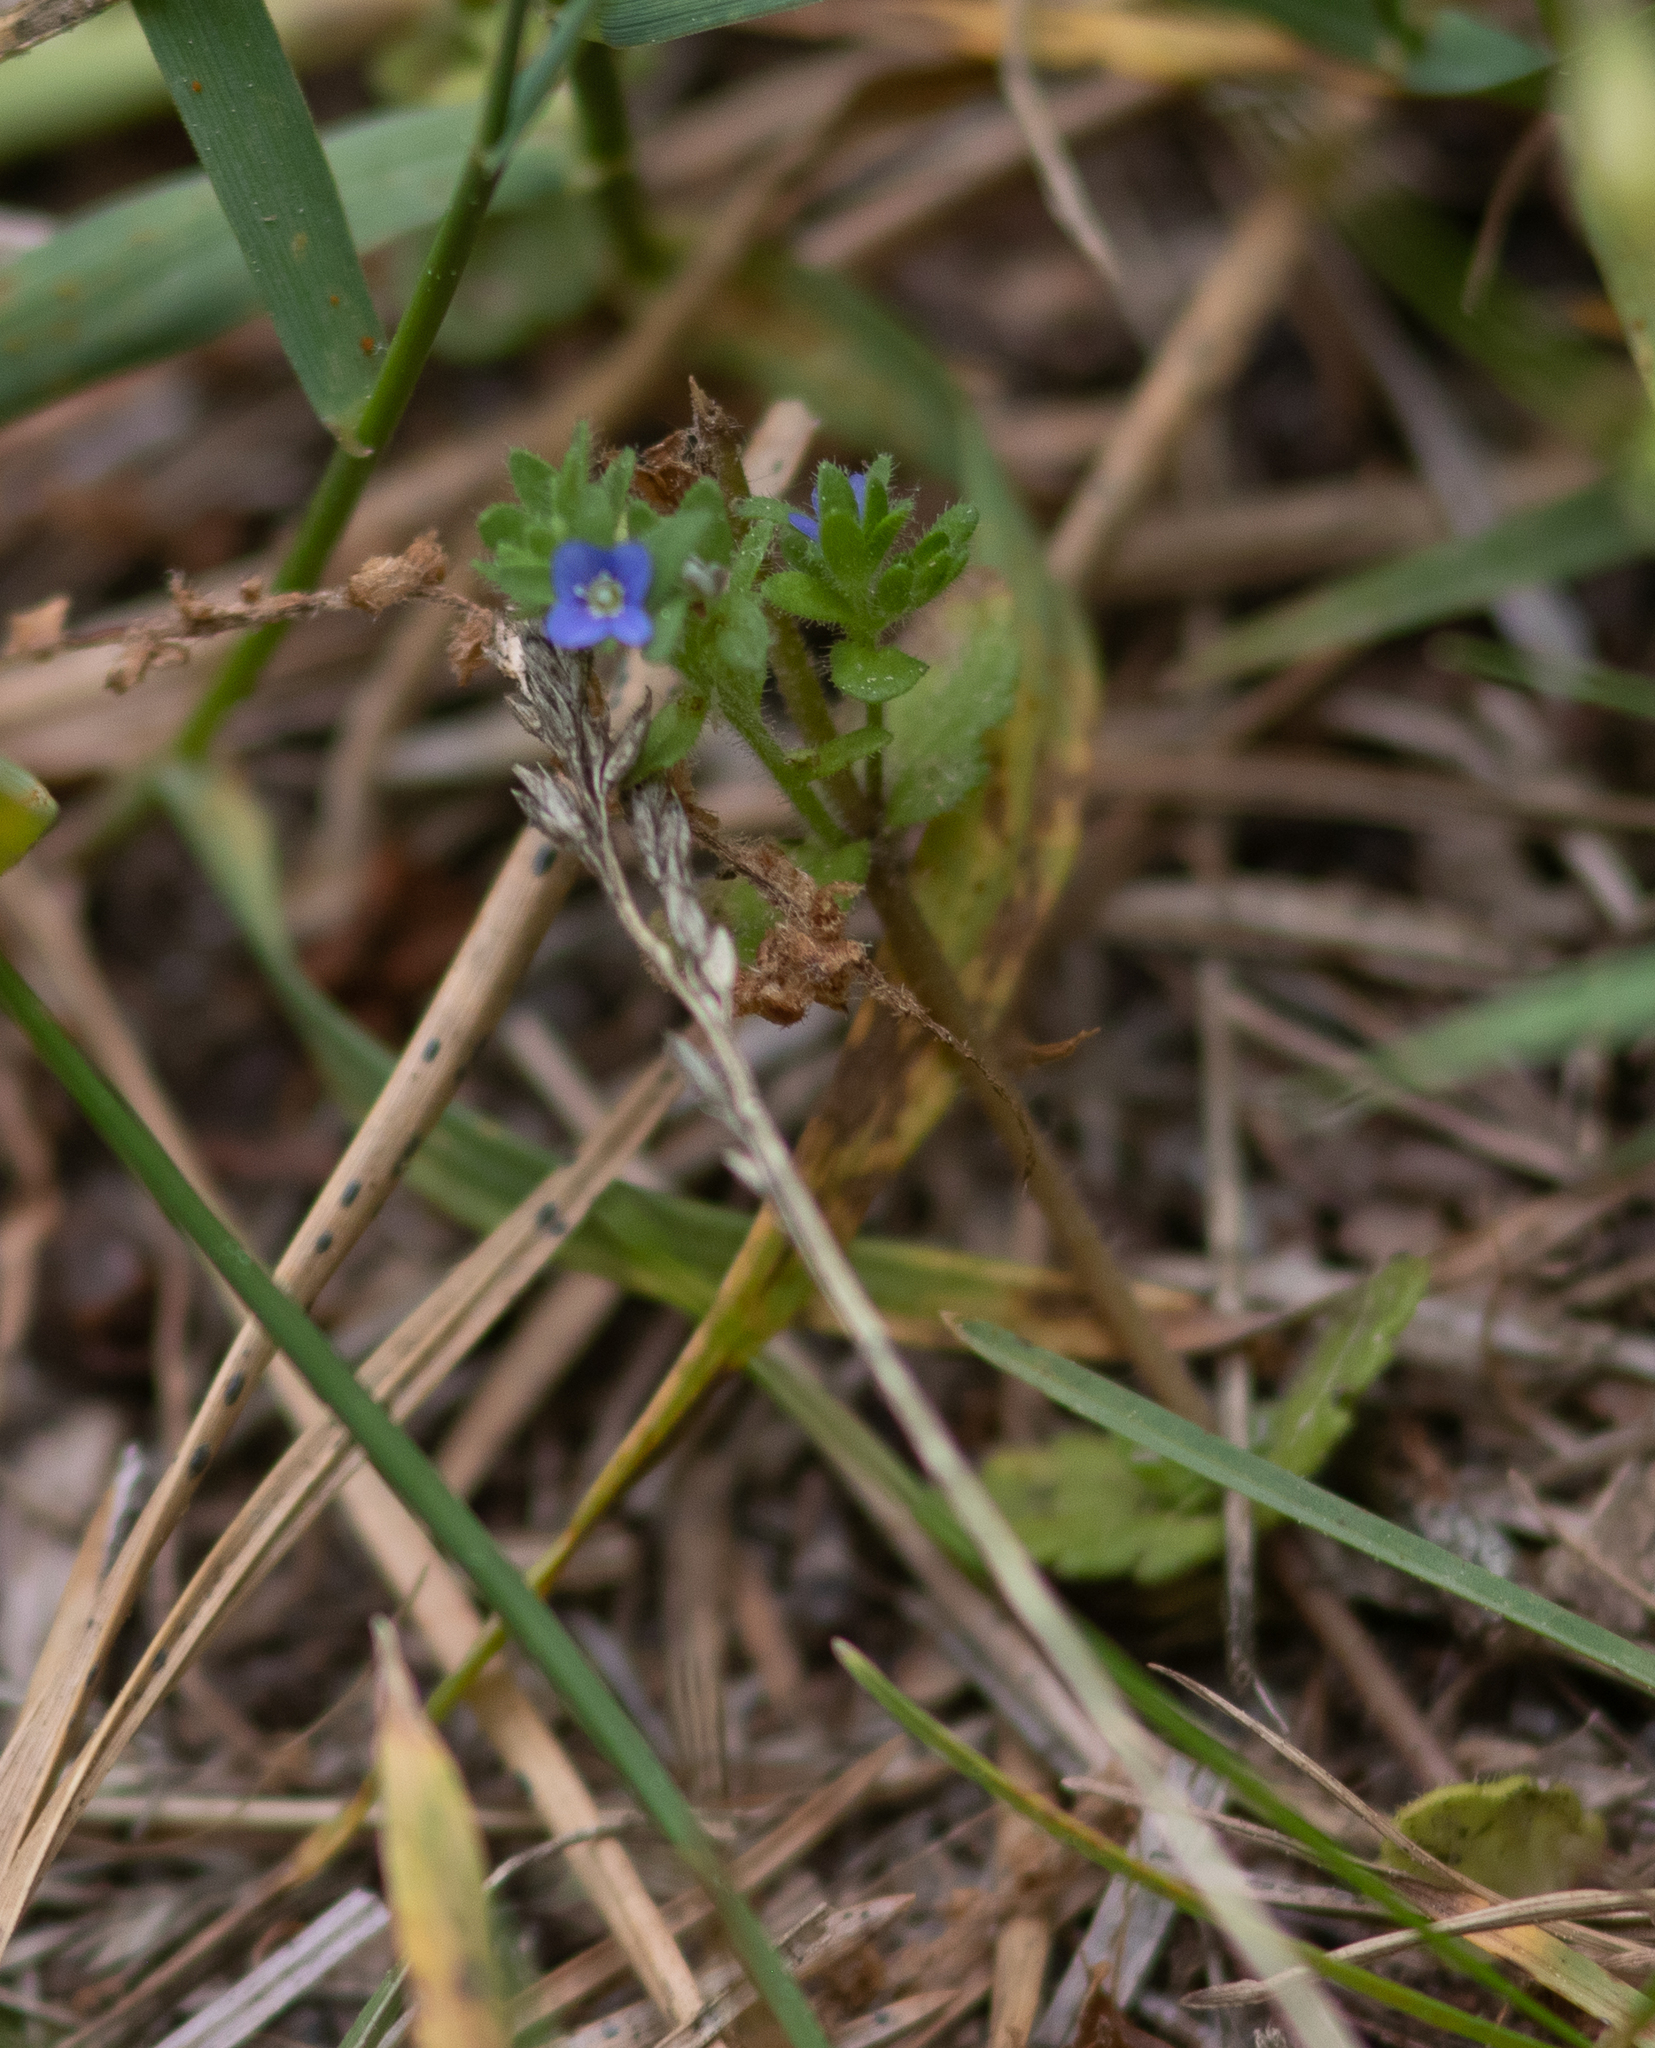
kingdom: Plantae
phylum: Tracheophyta
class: Magnoliopsida
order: Lamiales
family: Plantaginaceae
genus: Veronica
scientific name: Veronica arvensis
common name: Corn speedwell
